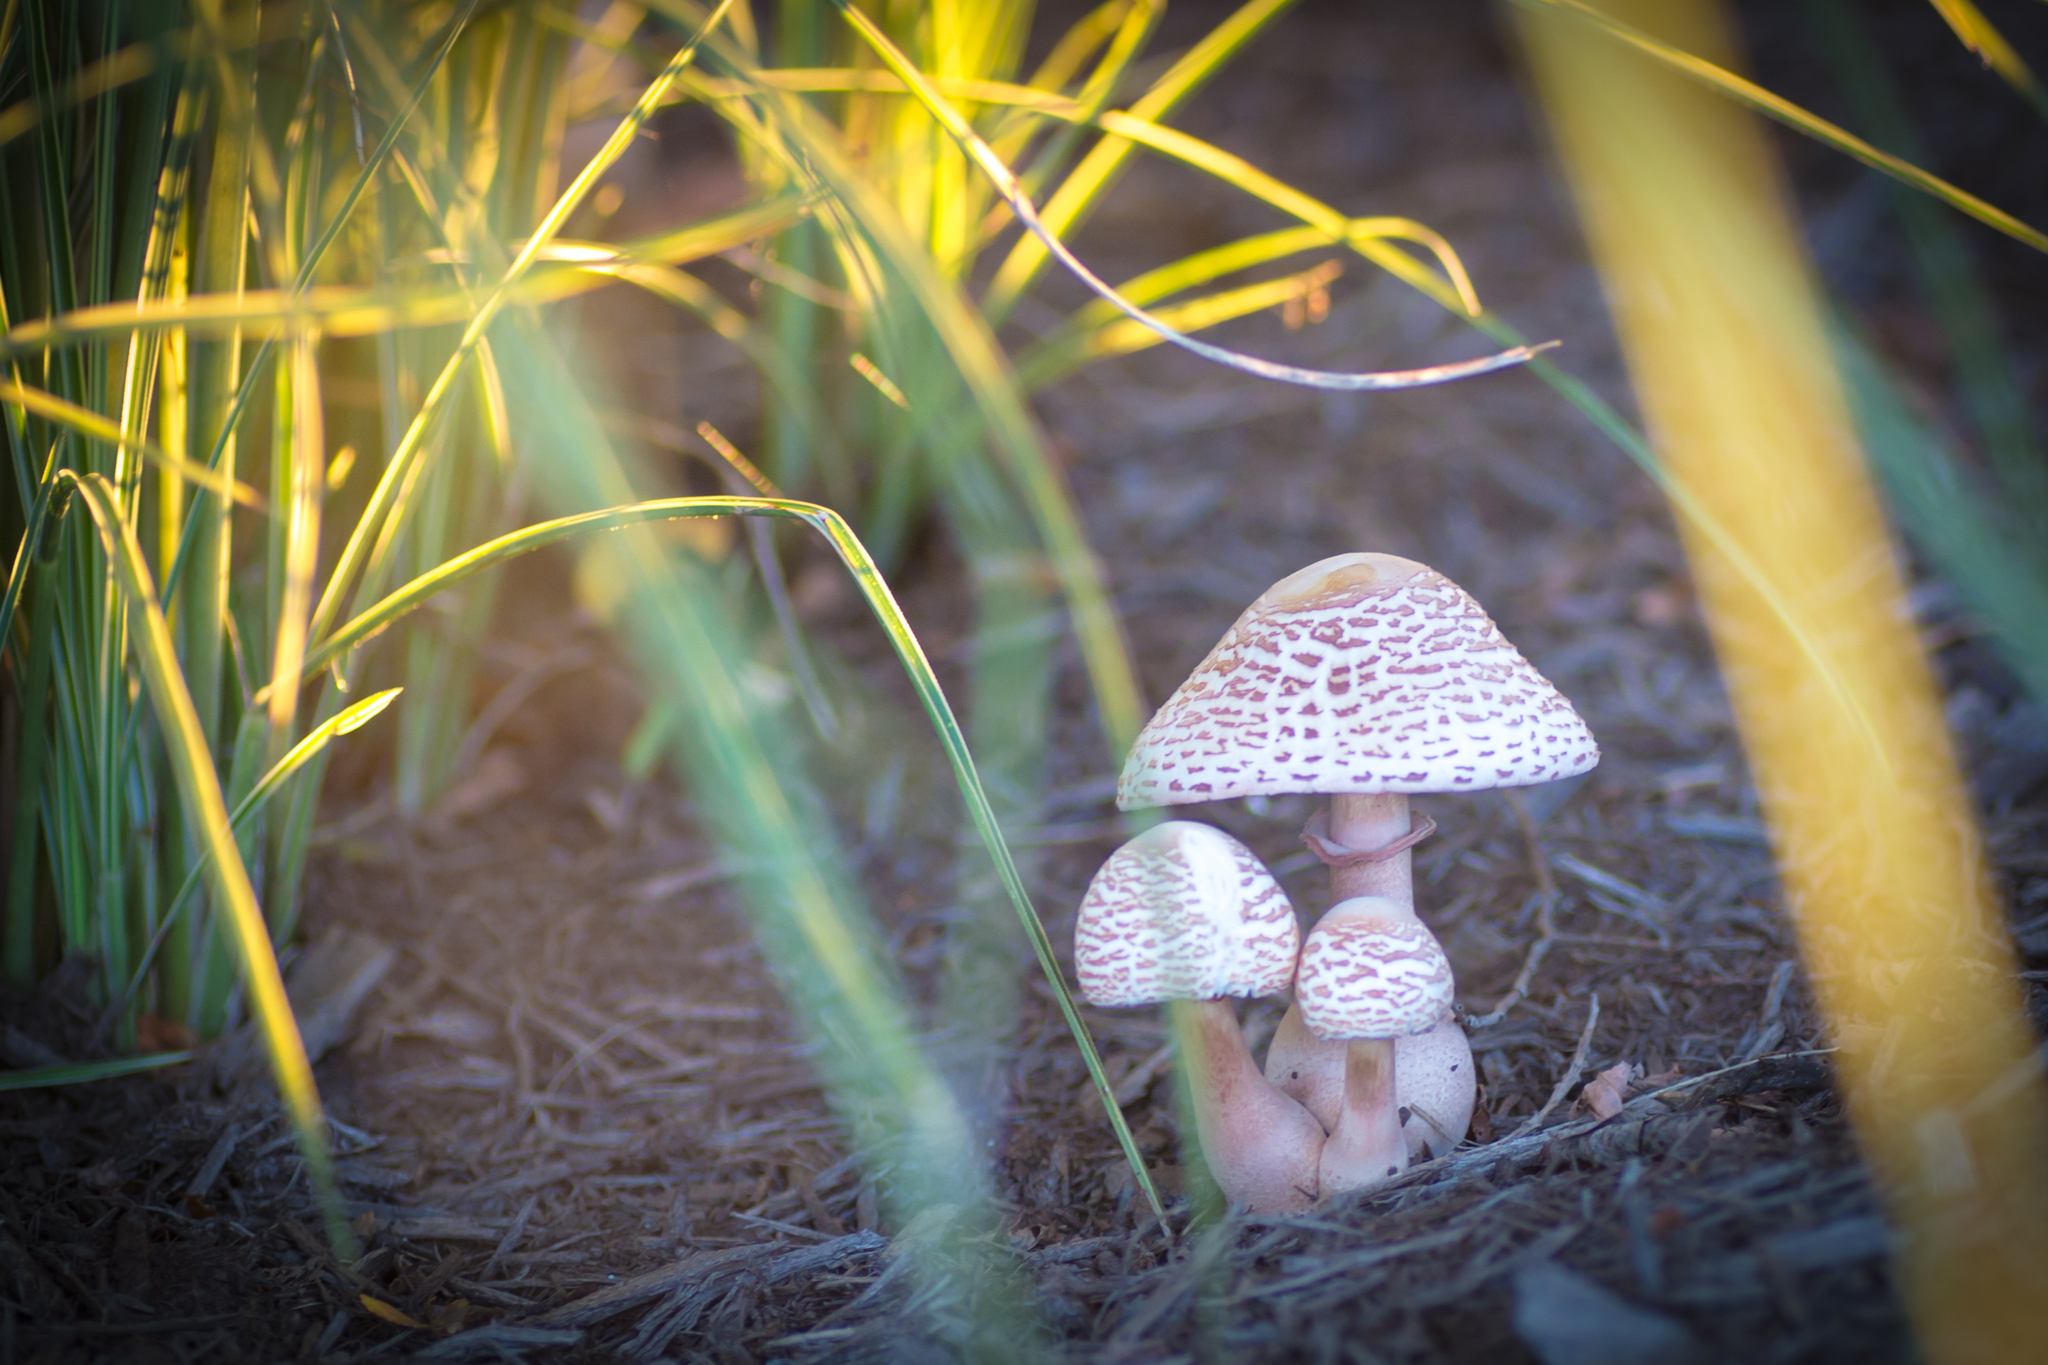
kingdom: Fungi
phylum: Basidiomycota
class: Agaricomycetes
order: Agaricales
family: Agaricaceae
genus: Leucoagaricus
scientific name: Leucoagaricus americanus
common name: Reddening lepiota
